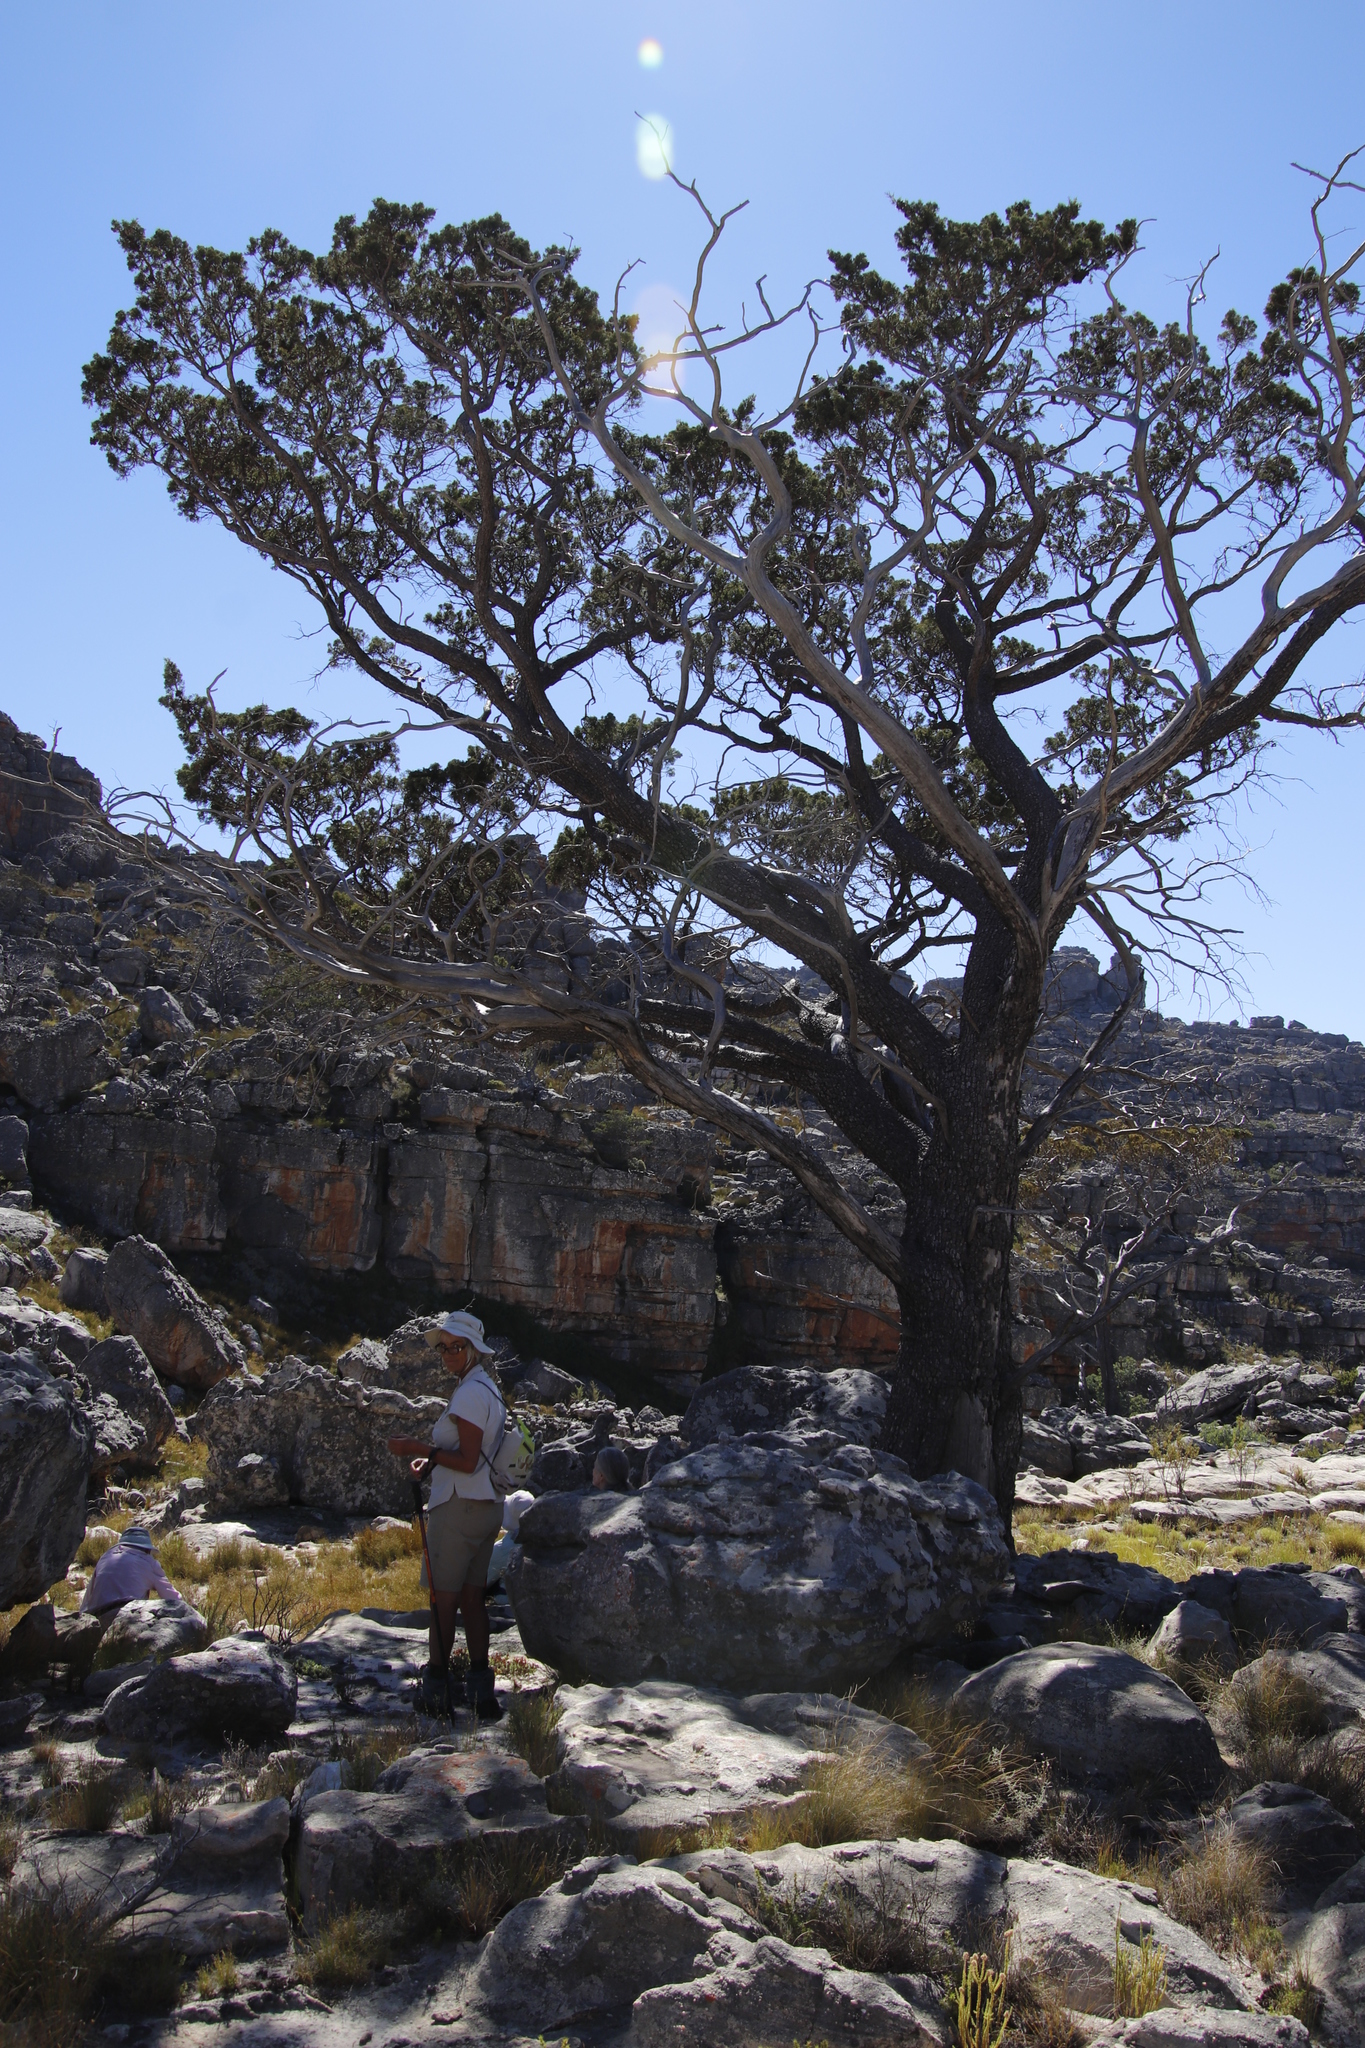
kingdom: Plantae
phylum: Tracheophyta
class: Pinopsida
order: Pinales
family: Cupressaceae
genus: Widdringtonia
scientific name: Widdringtonia nodiflora
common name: Cape cypress
